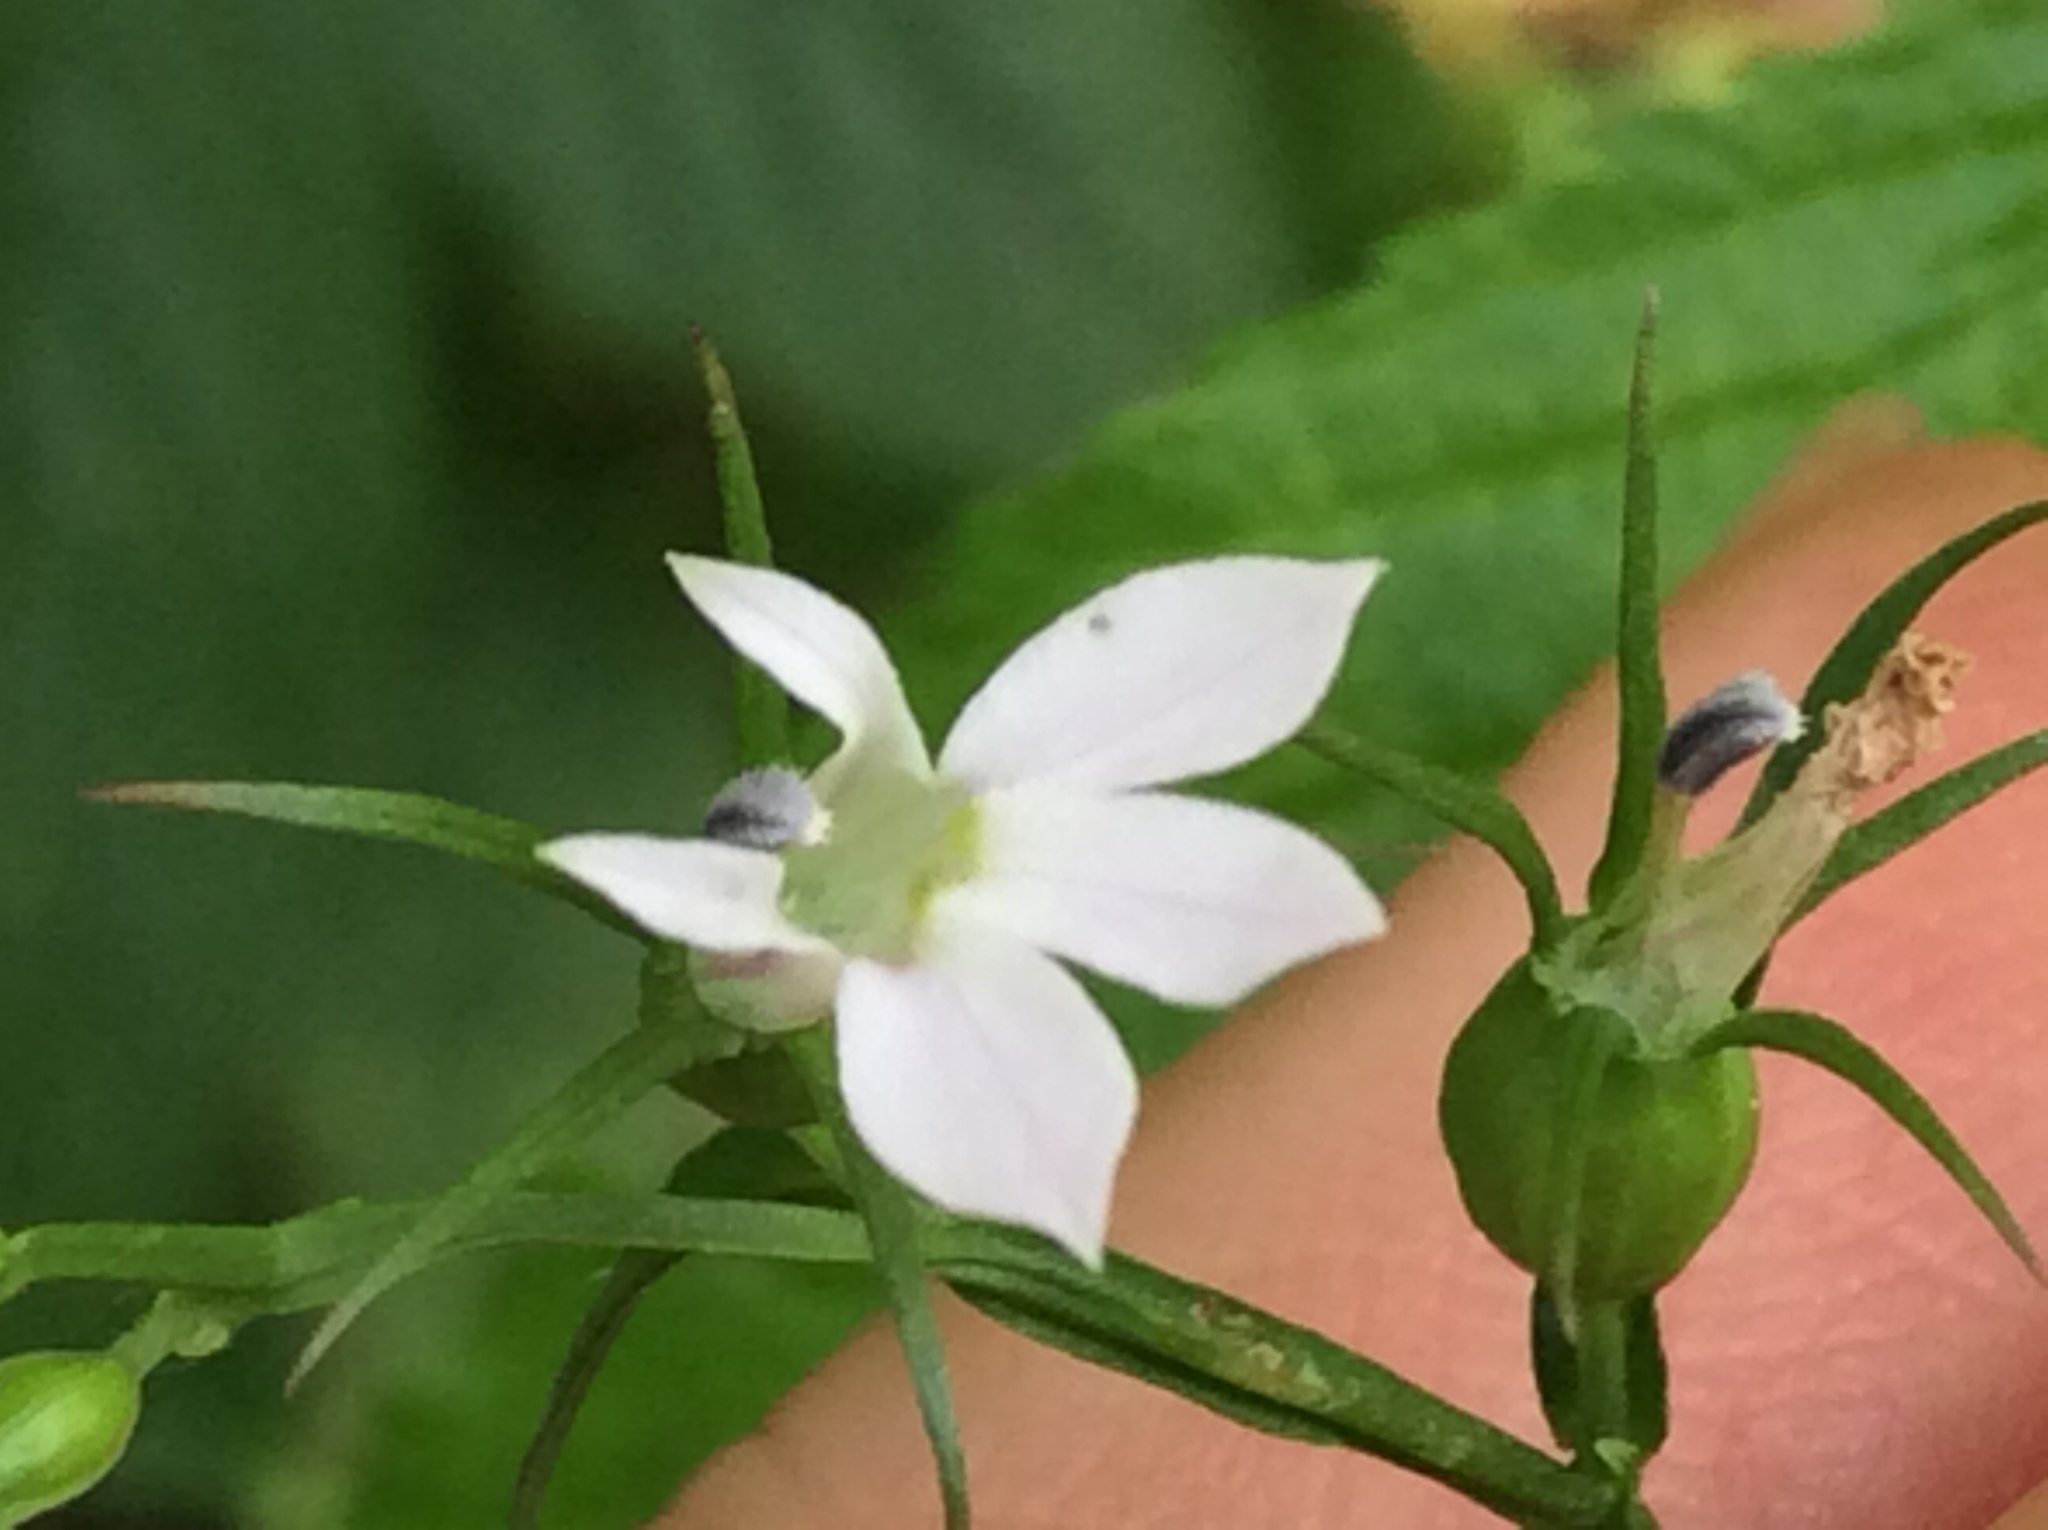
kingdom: Plantae
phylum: Tracheophyta
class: Magnoliopsida
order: Asterales
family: Campanulaceae
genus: Lobelia
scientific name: Lobelia inflata
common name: Indian tobacco
